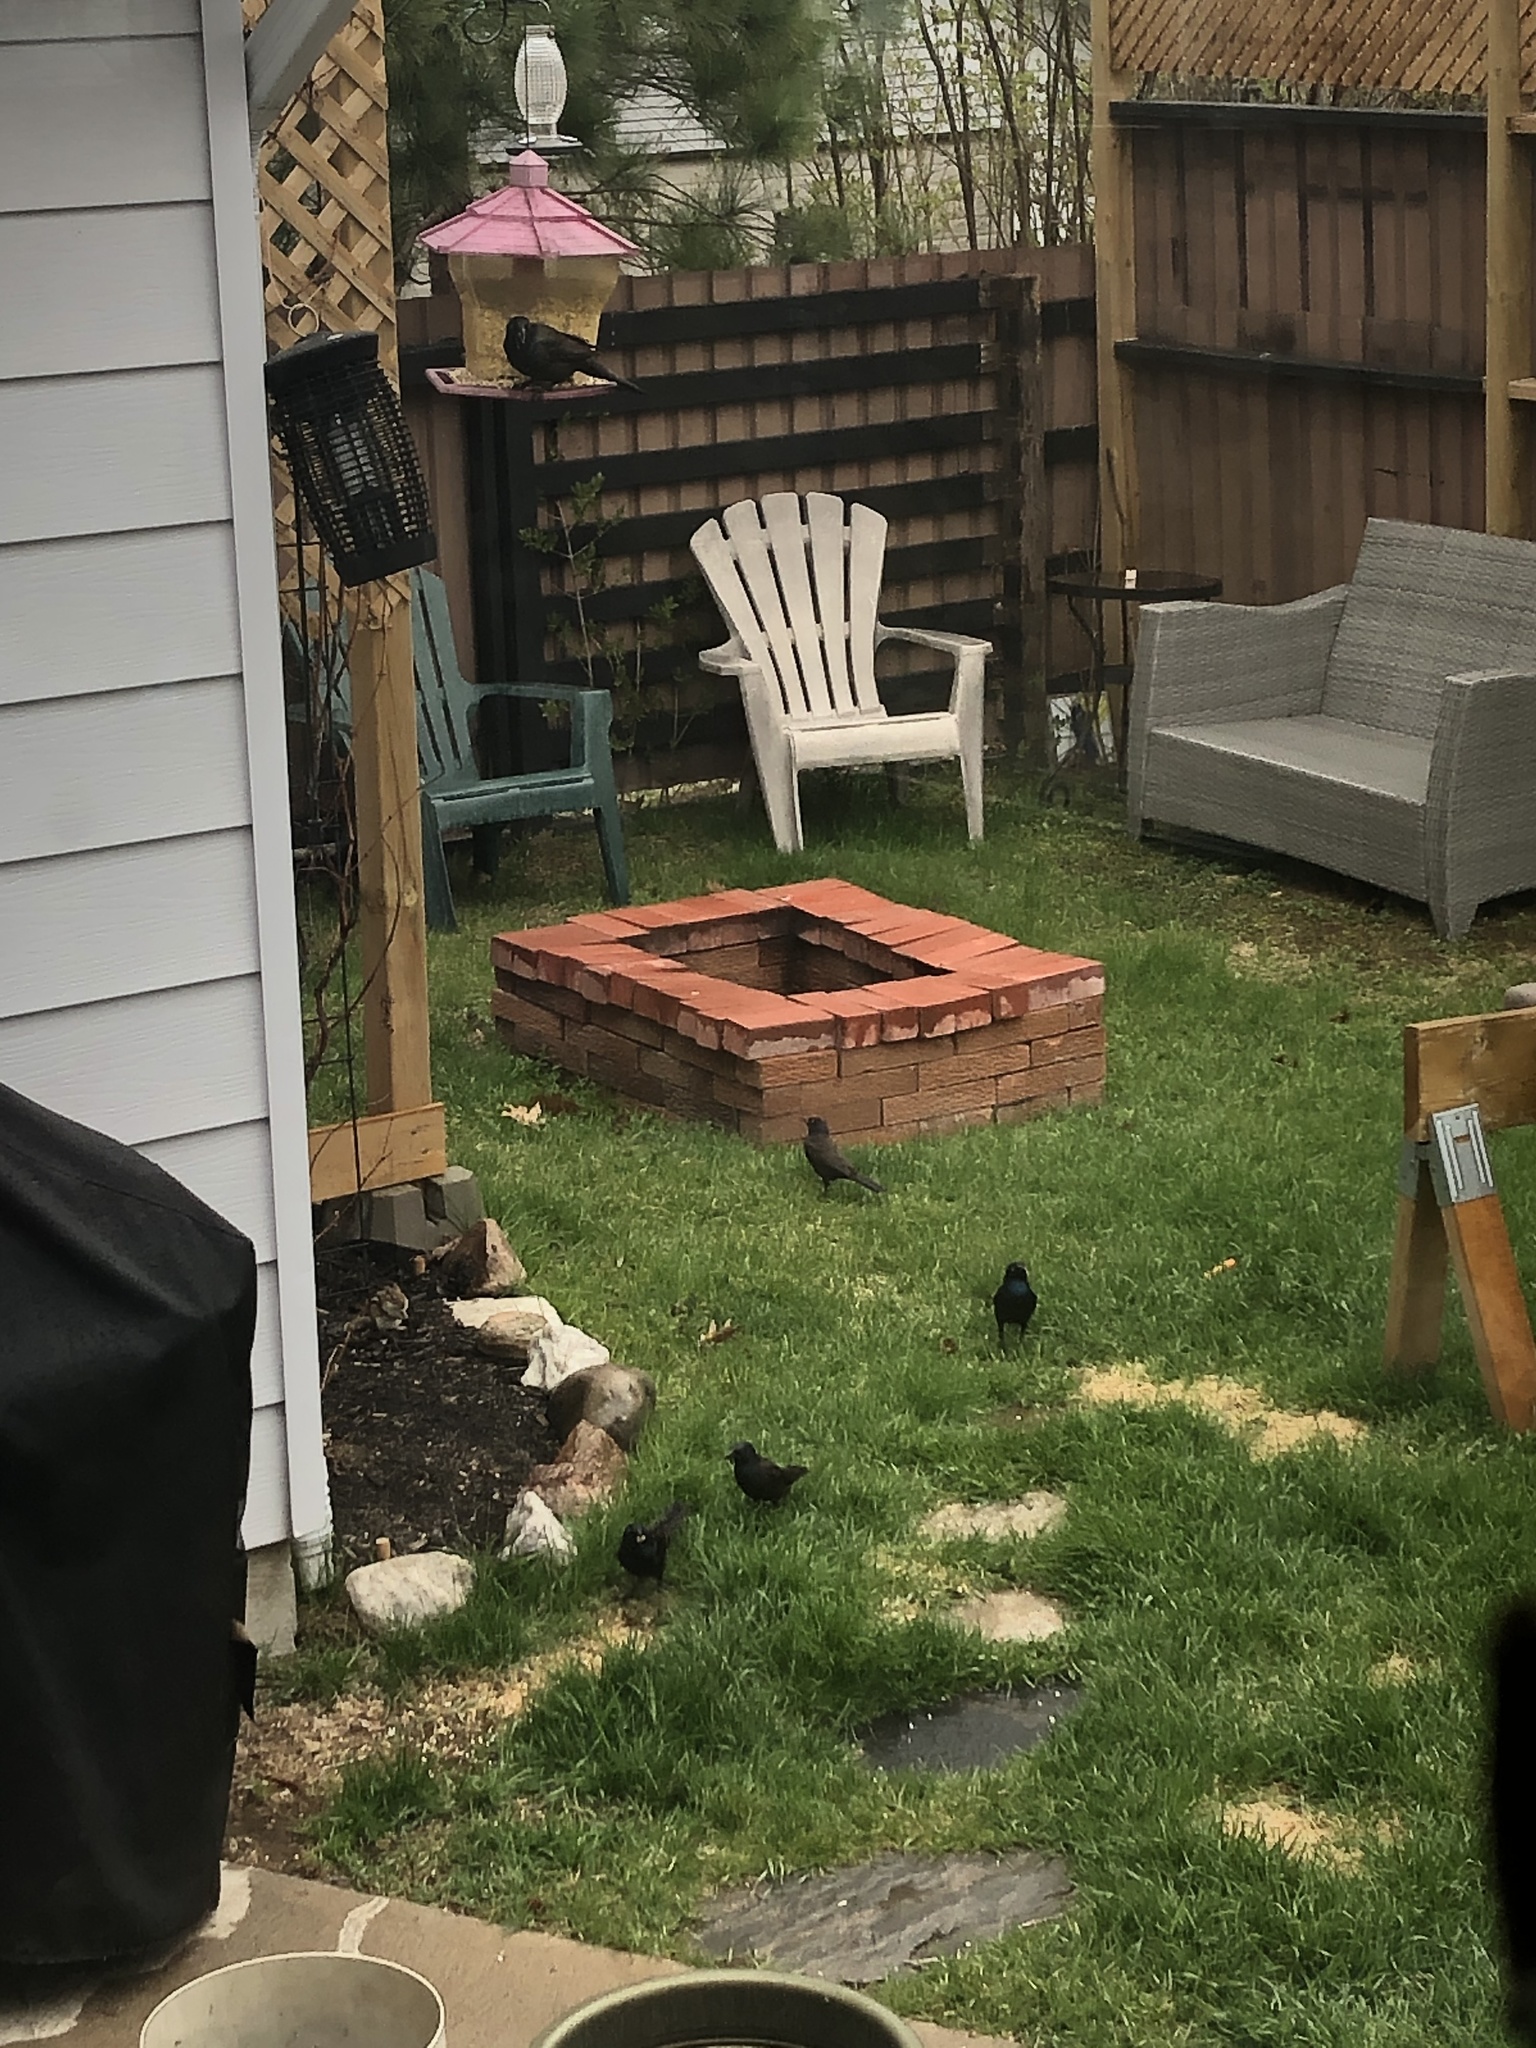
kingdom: Animalia
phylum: Chordata
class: Mammalia
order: Rodentia
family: Sciuridae
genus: Tamias
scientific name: Tamias striatus
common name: Eastern chipmunk
